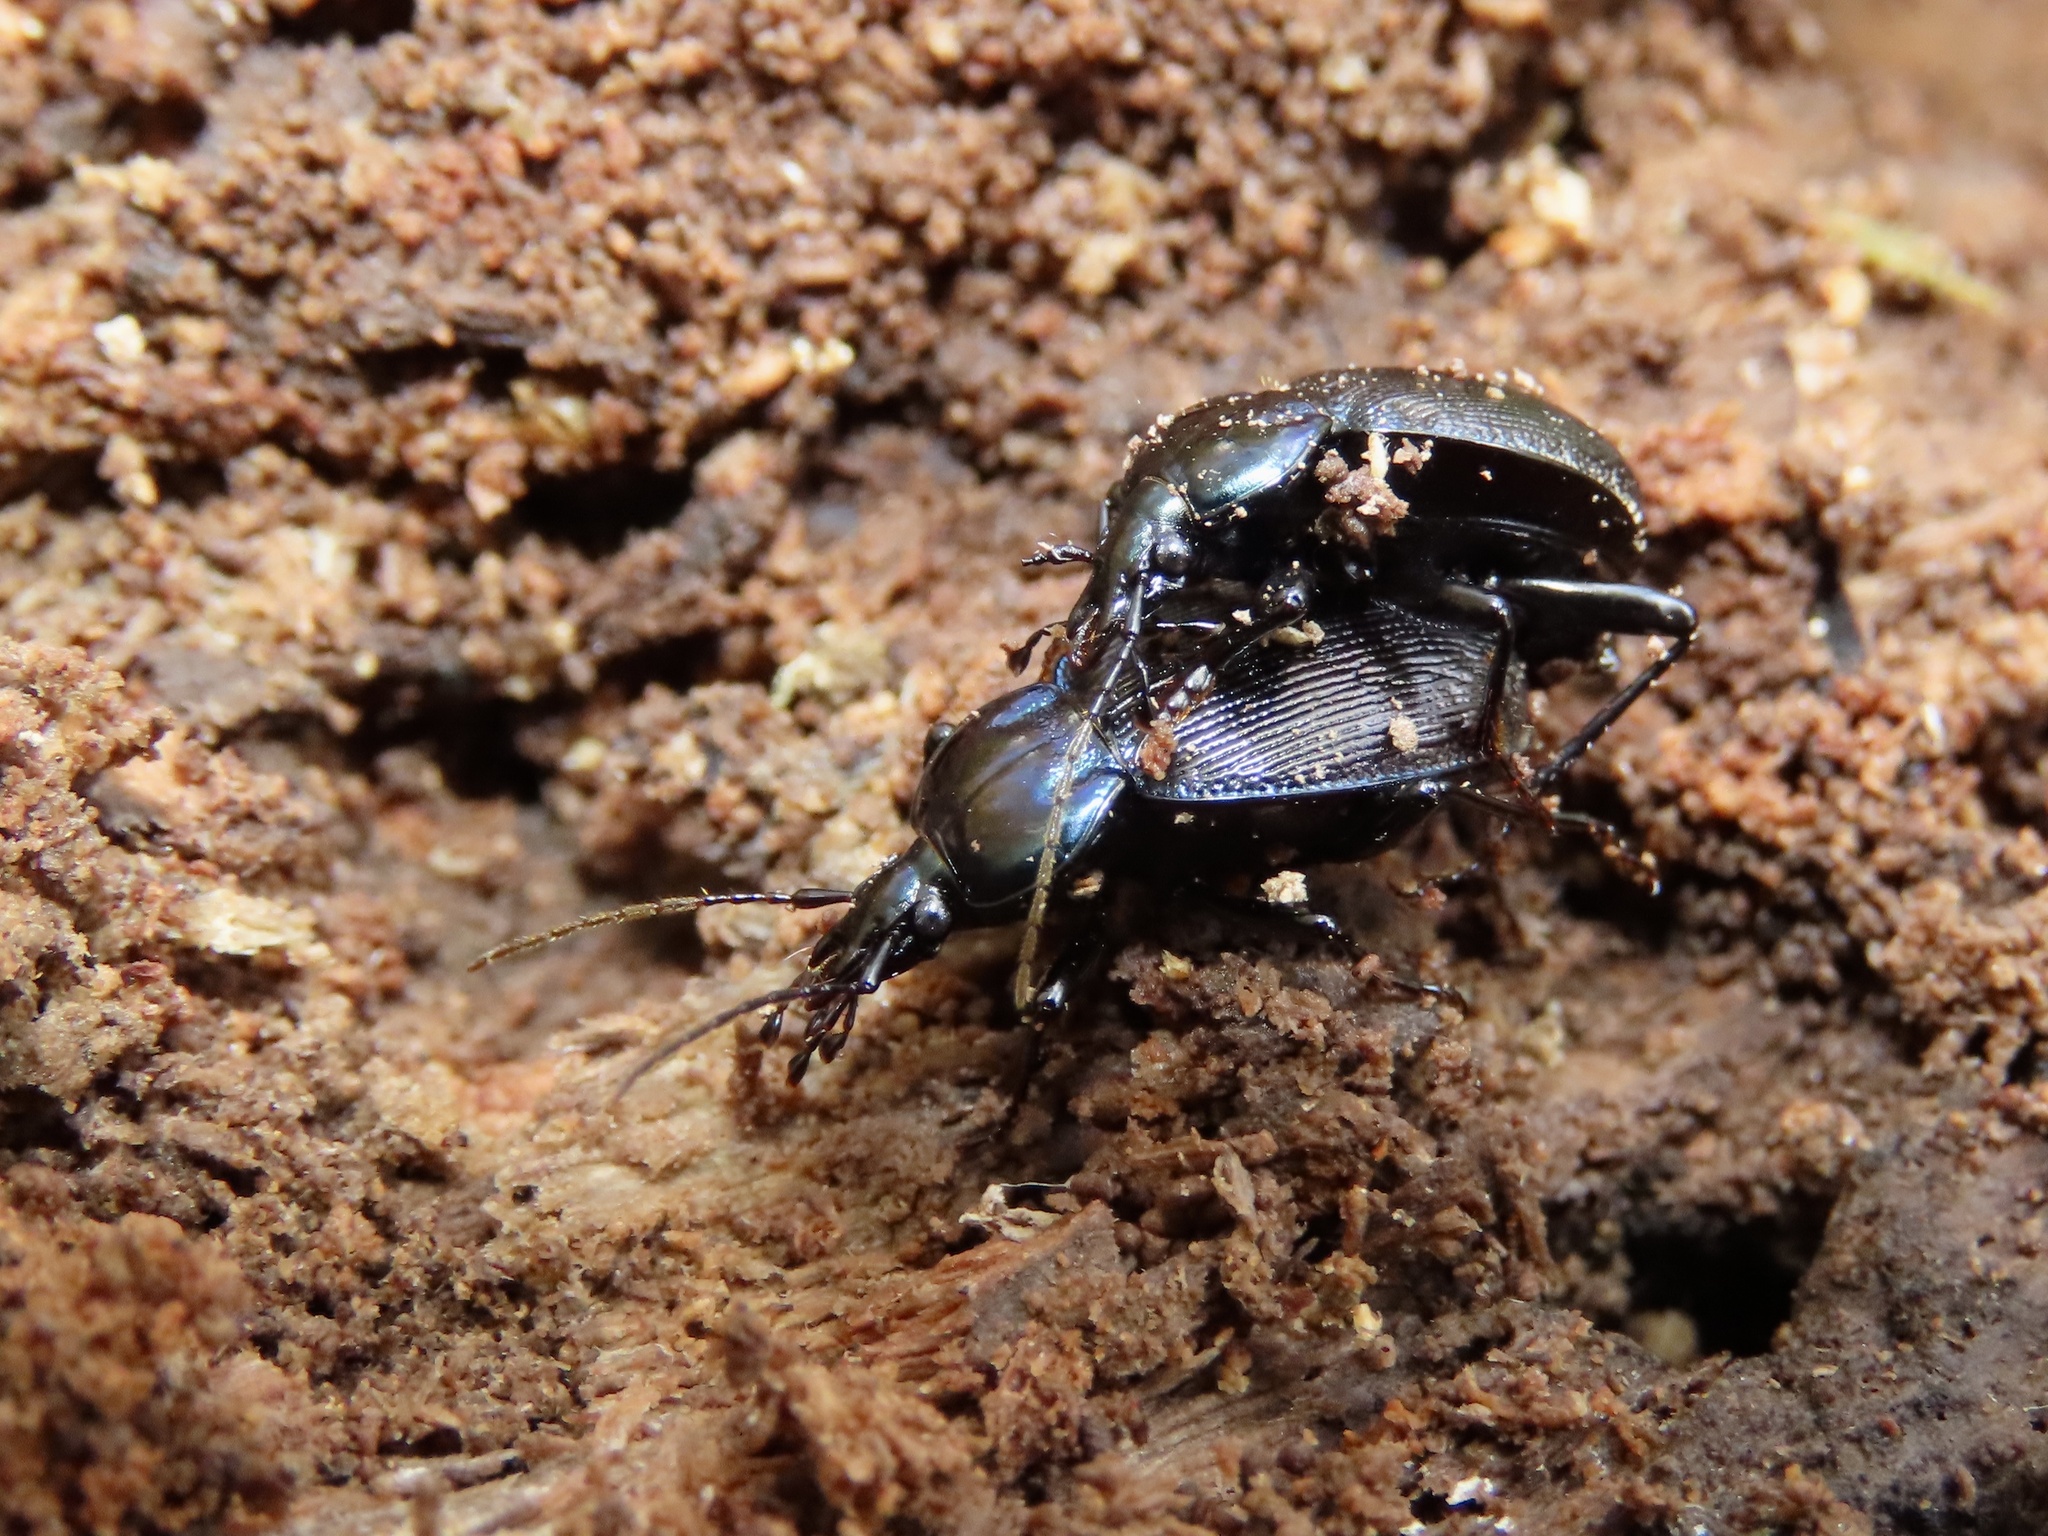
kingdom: Animalia
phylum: Arthropoda
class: Insecta
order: Coleoptera
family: Carabidae
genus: Sphaeroderus
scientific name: Sphaeroderus stenostomus
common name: Small snail-eating ground beetle
